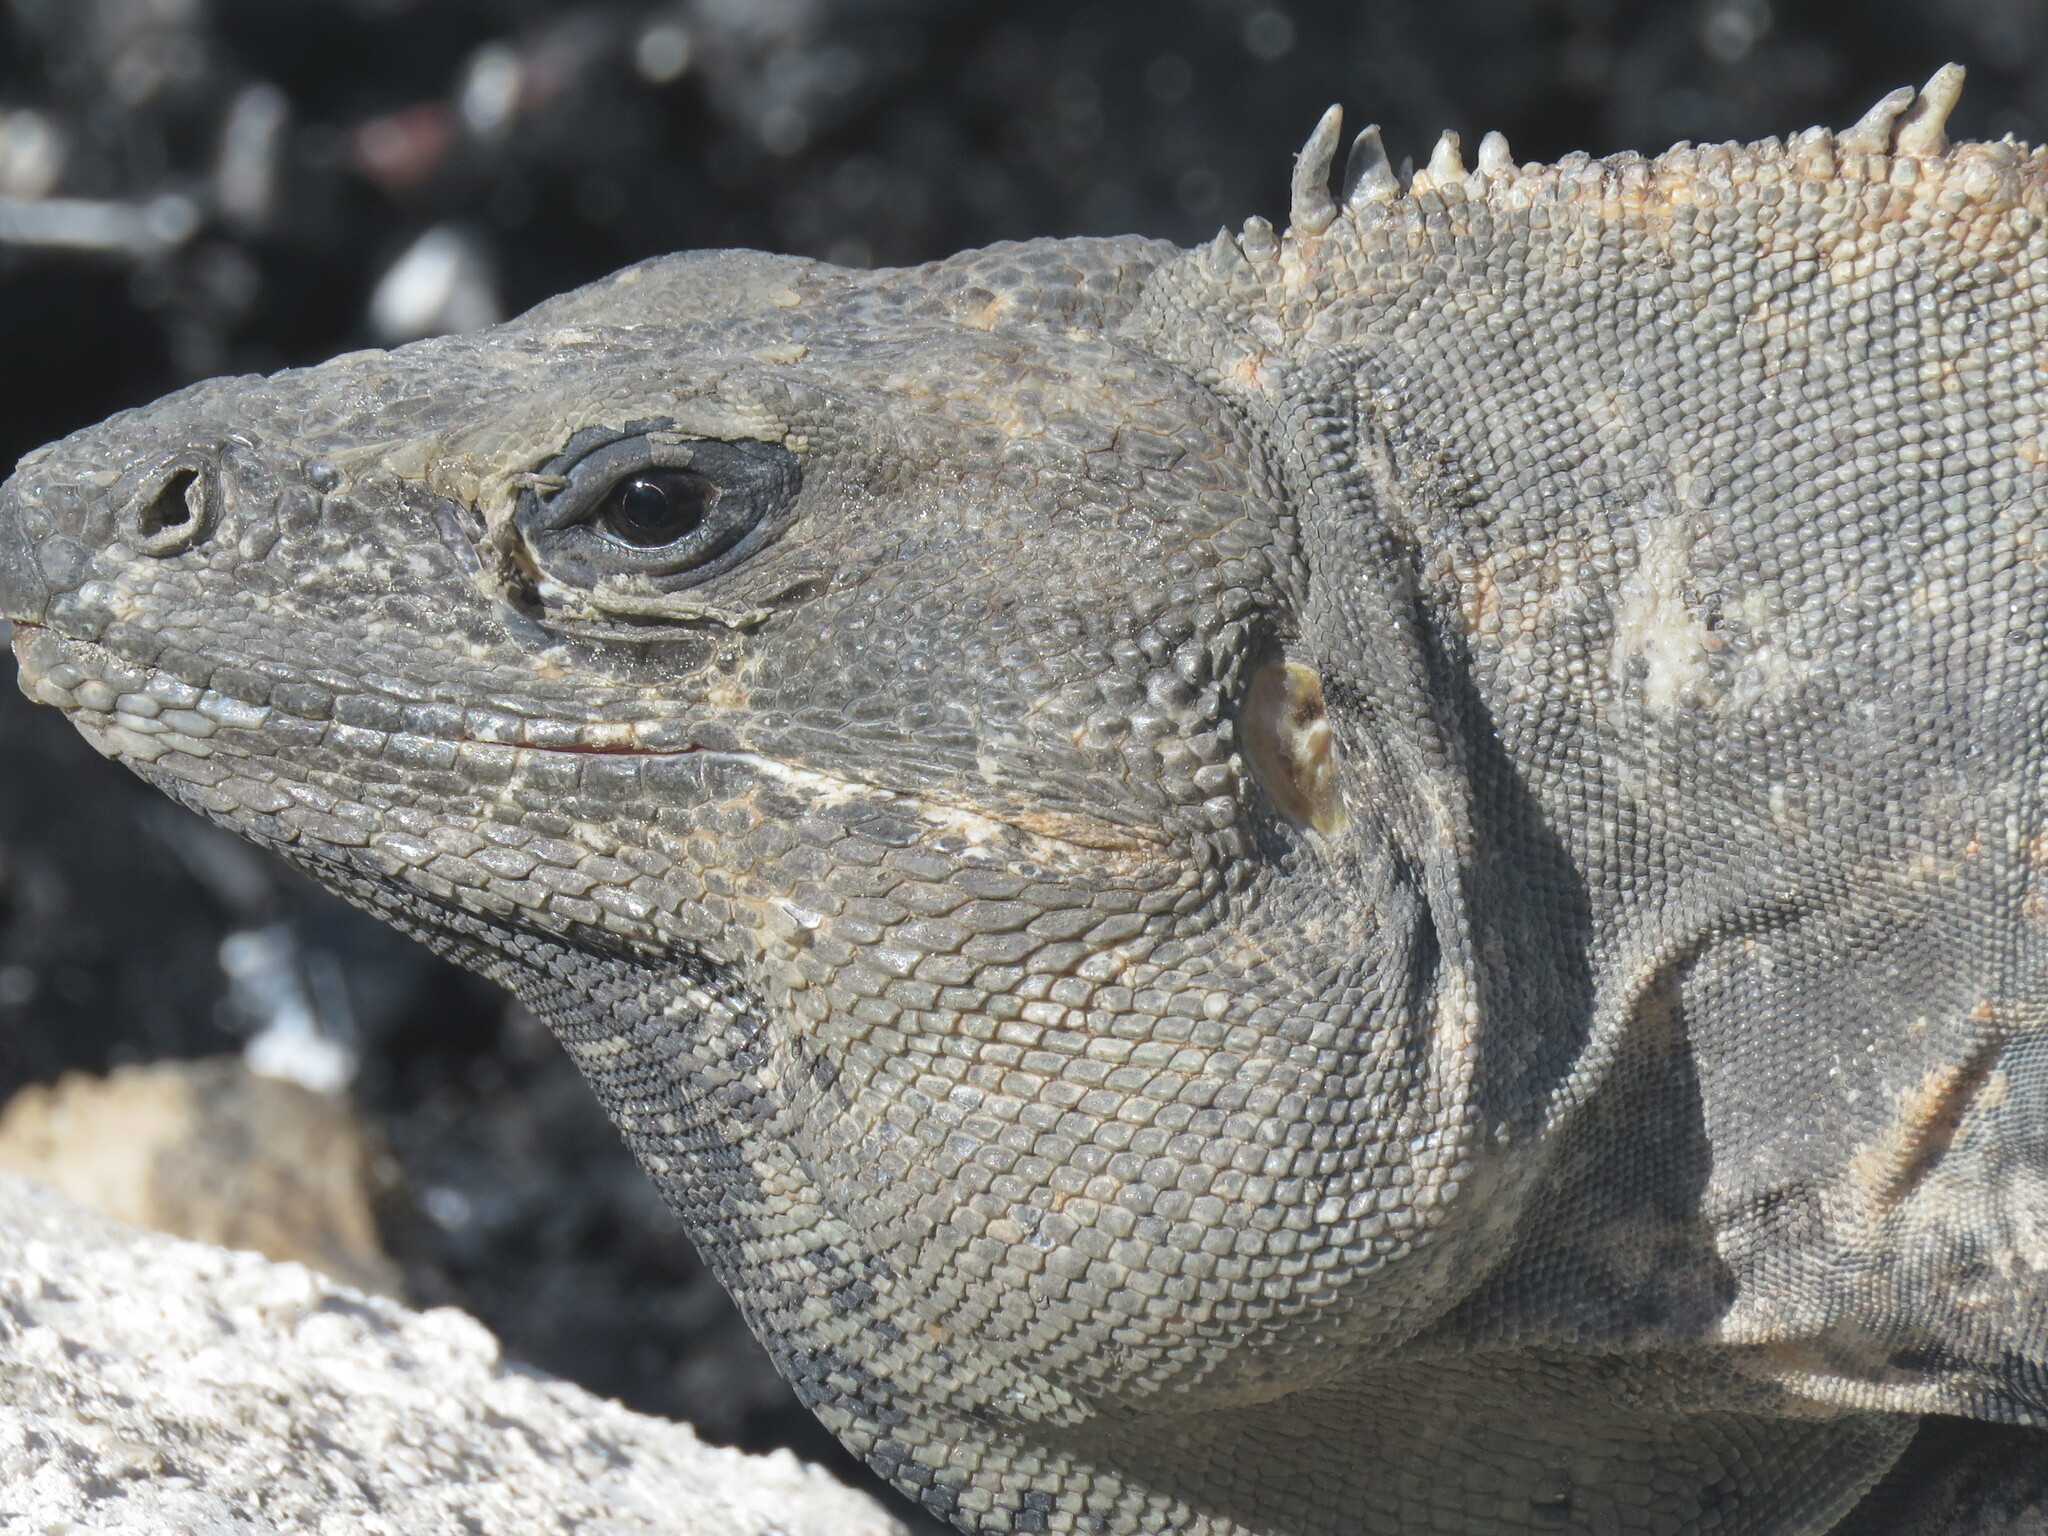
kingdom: Animalia
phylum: Chordata
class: Squamata
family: Iguanidae
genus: Ctenosaura
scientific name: Ctenosaura similis
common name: Black spiny-tailed iguana
